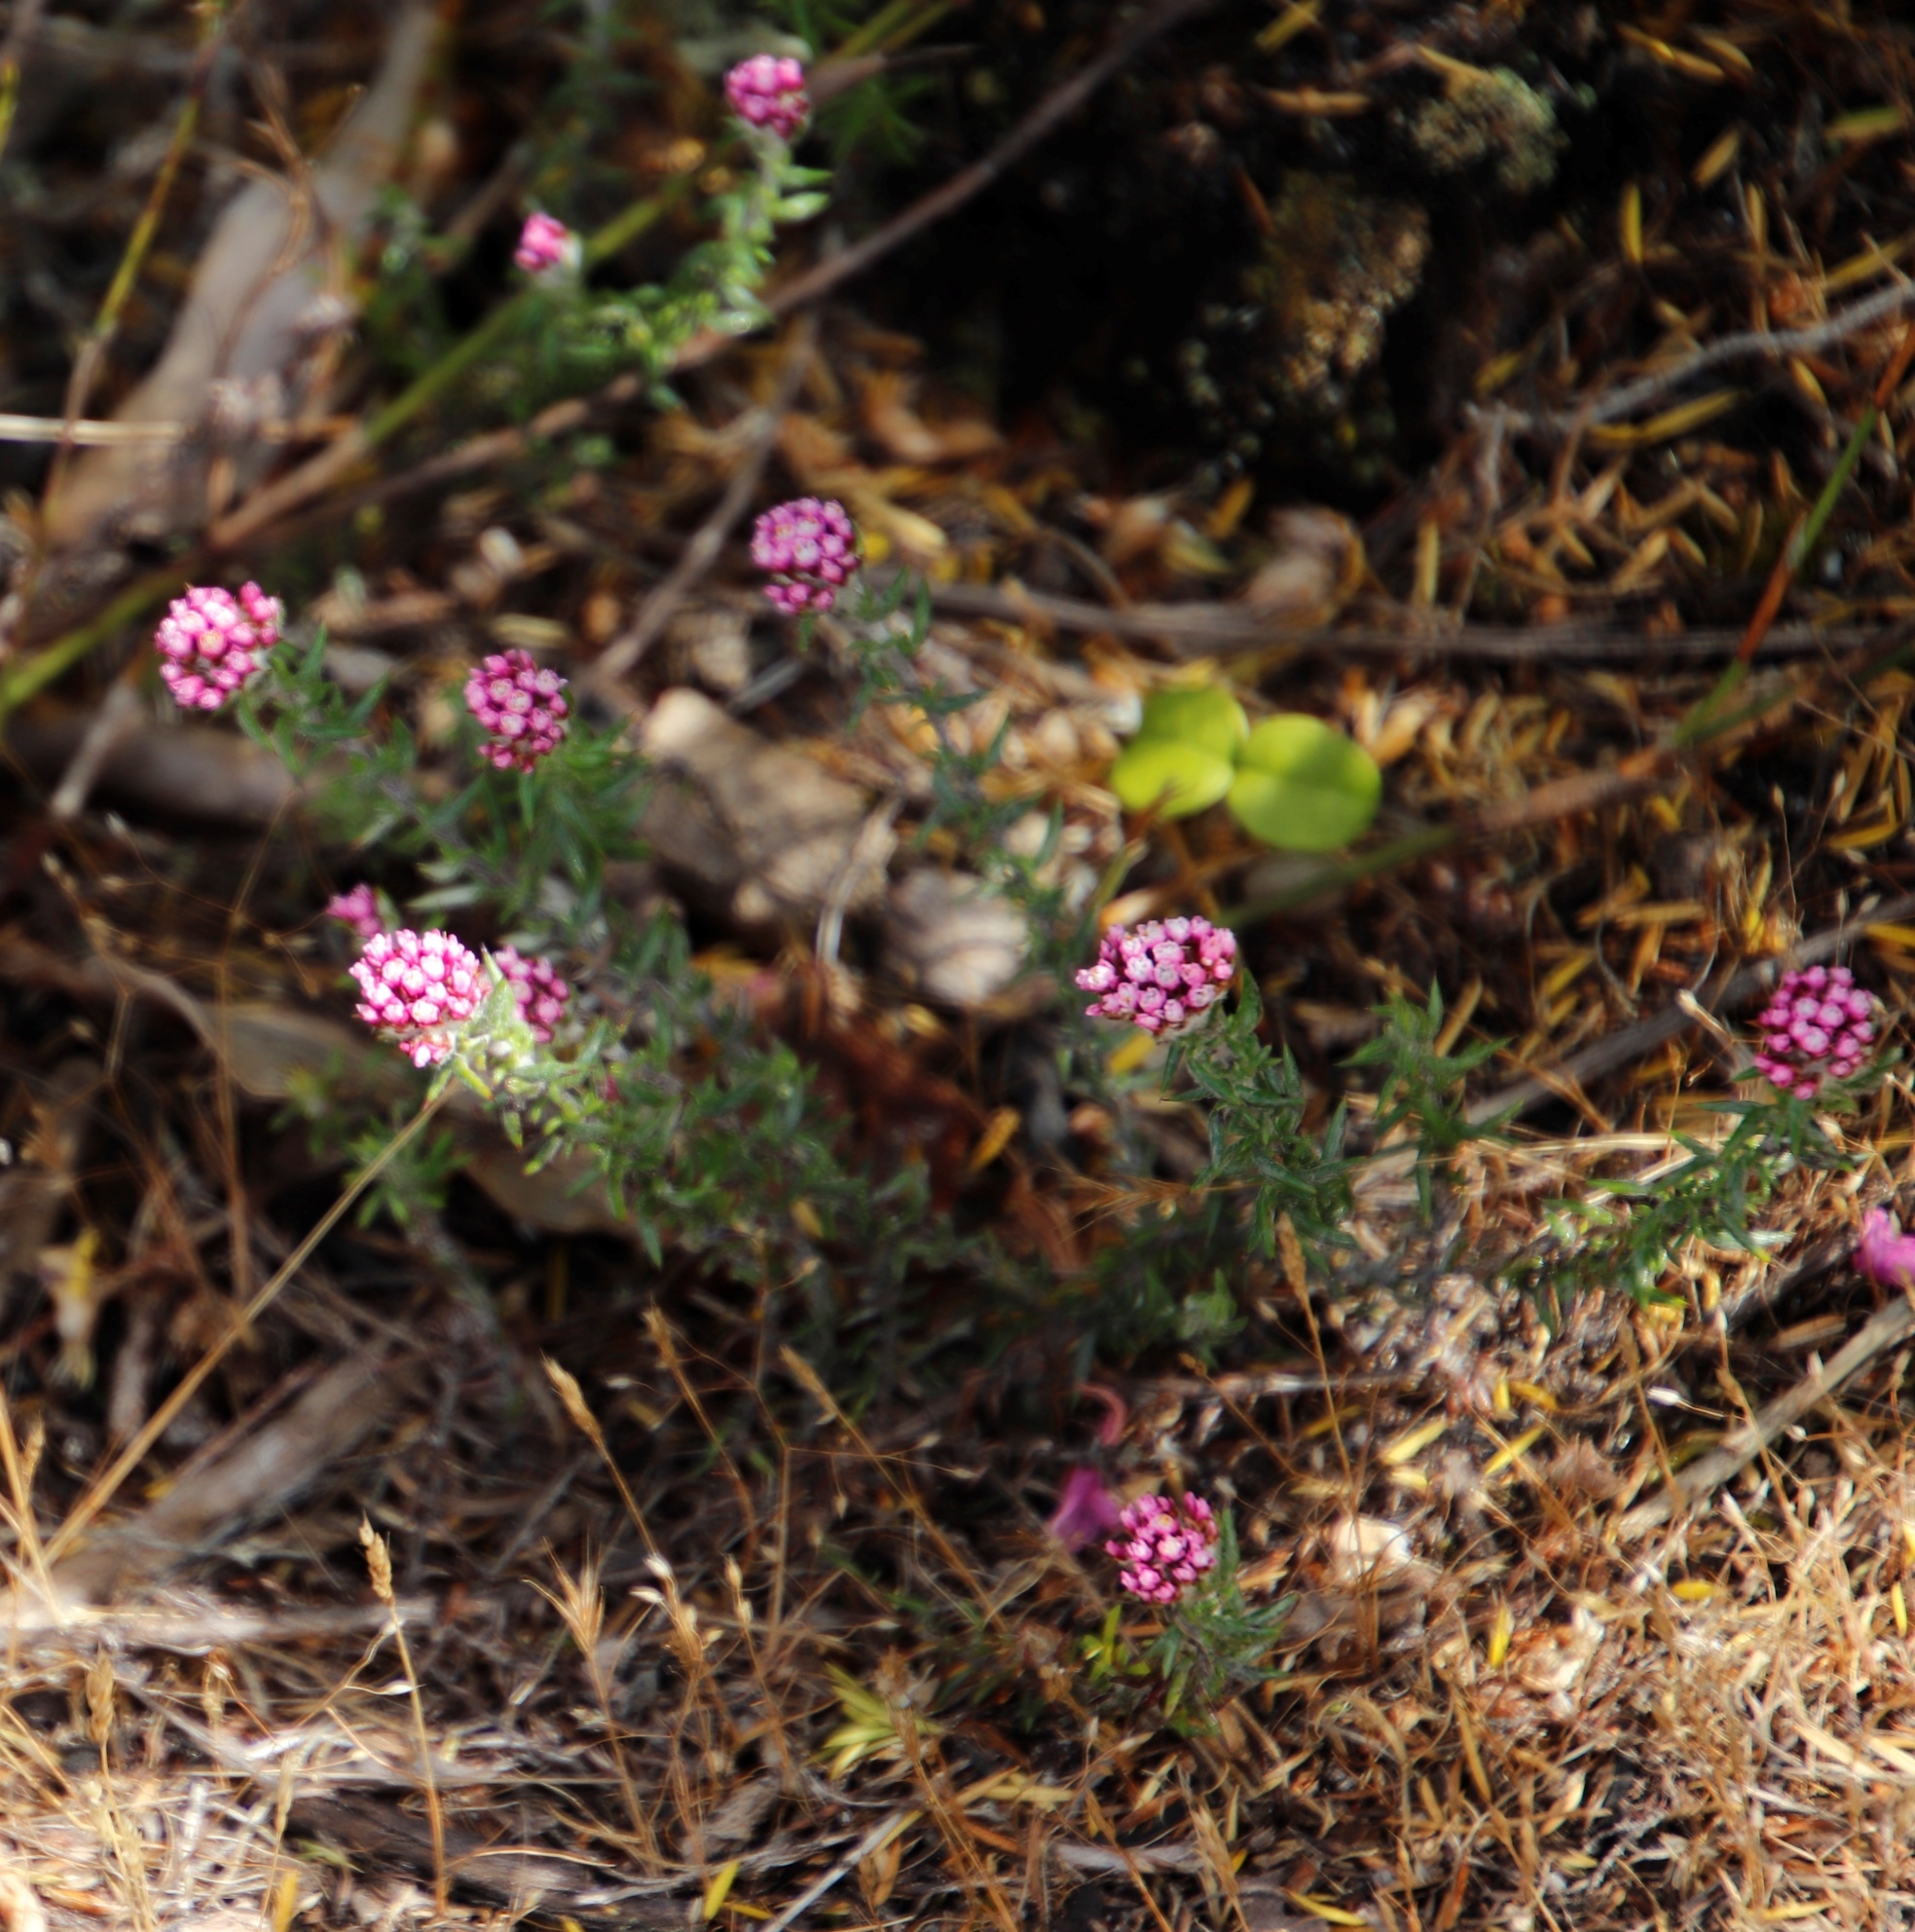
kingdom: Plantae
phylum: Tracheophyta
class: Magnoliopsida
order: Asterales
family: Asteraceae
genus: Metalasia
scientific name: Metalasia divergens
